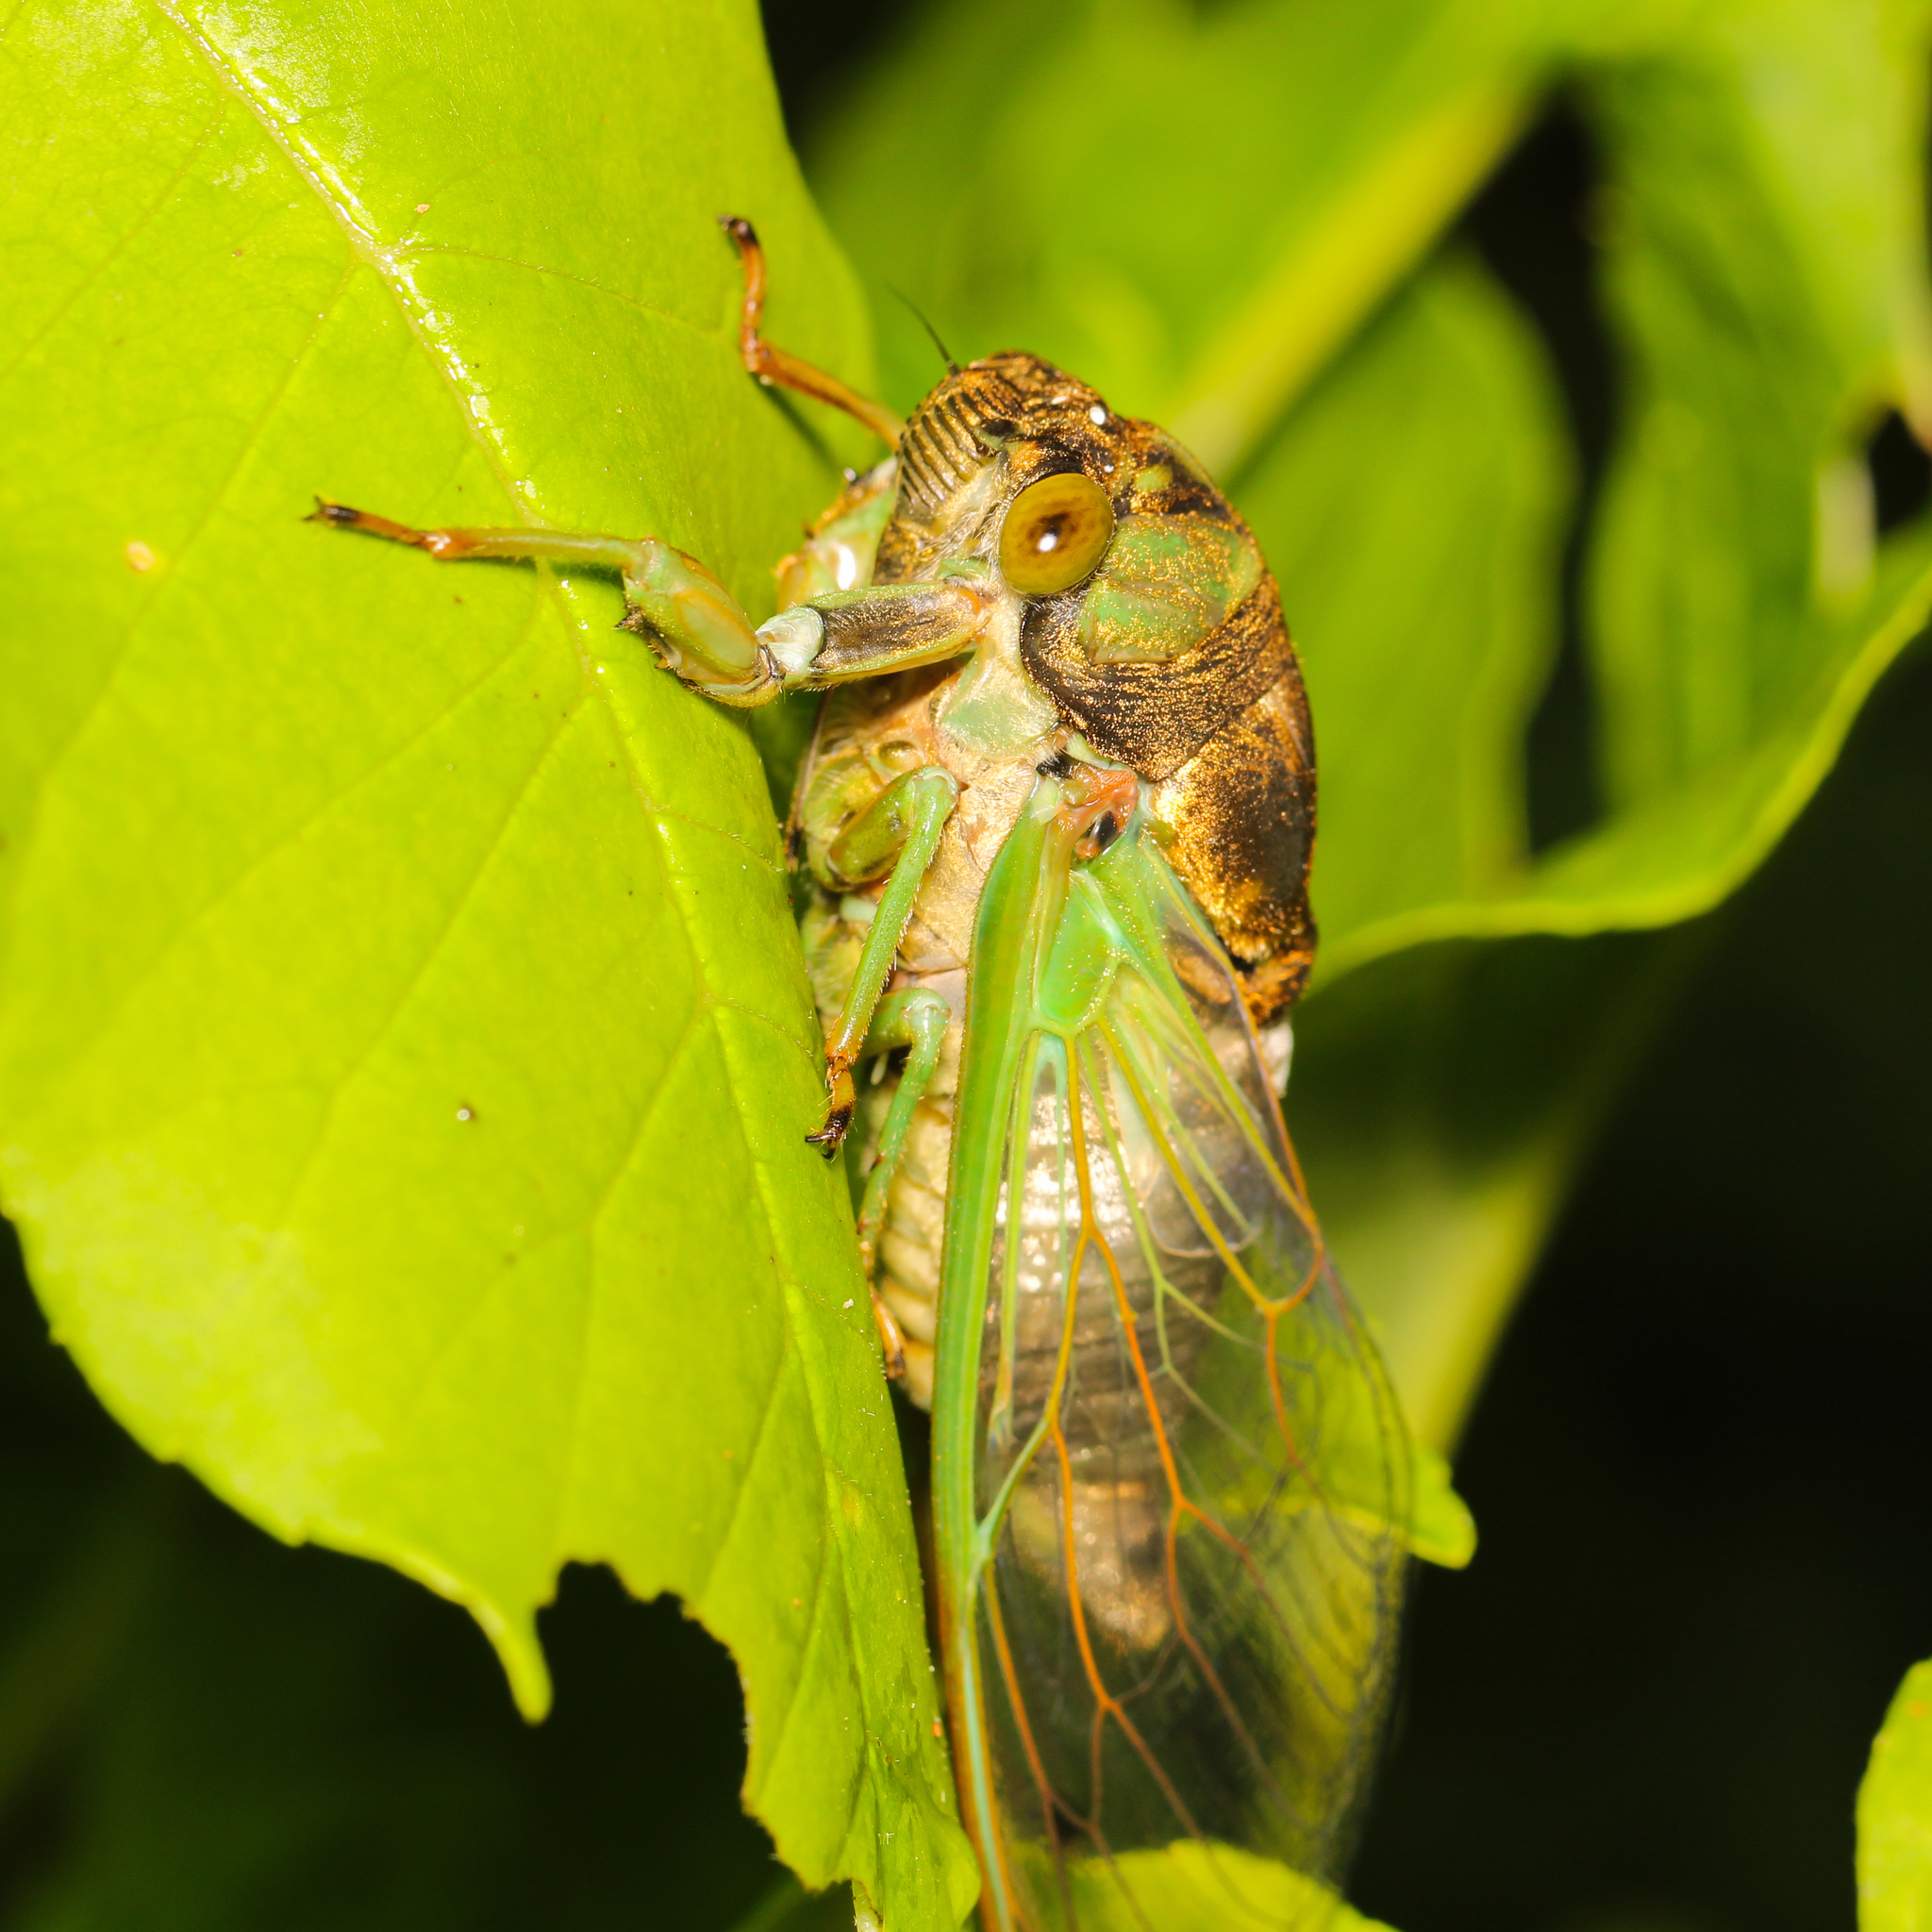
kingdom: Animalia
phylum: Arthropoda
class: Insecta
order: Hemiptera
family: Cicadidae
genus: Neotibicen
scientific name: Neotibicen tibicen
